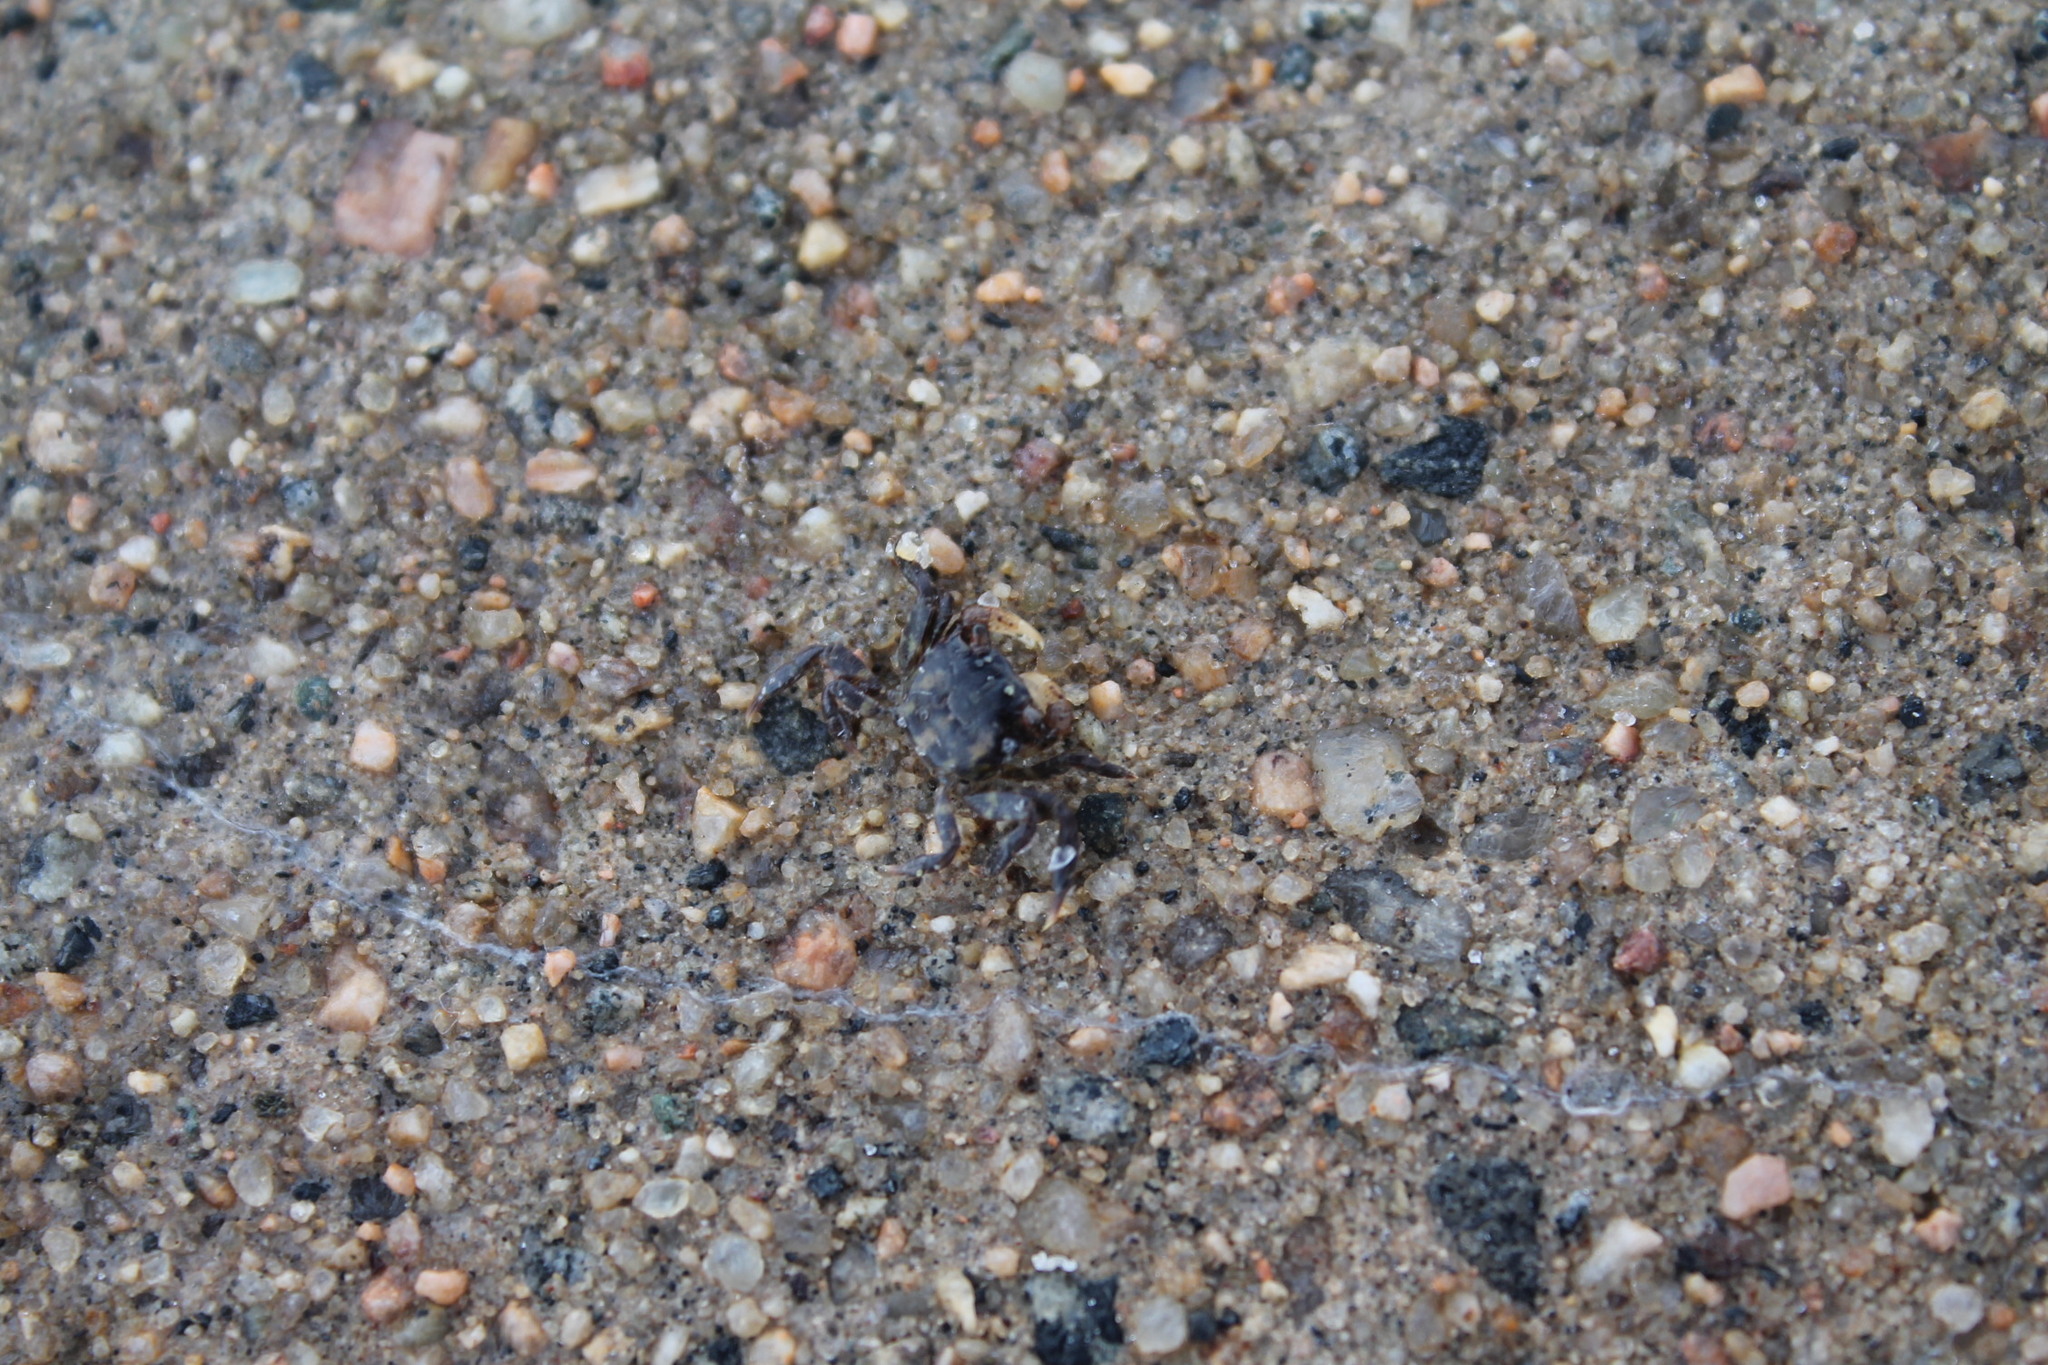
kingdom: Animalia
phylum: Arthropoda
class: Malacostraca
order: Decapoda
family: Varunidae
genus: Hemigrapsus
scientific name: Hemigrapsus sanguineus
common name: Asian shore crab
